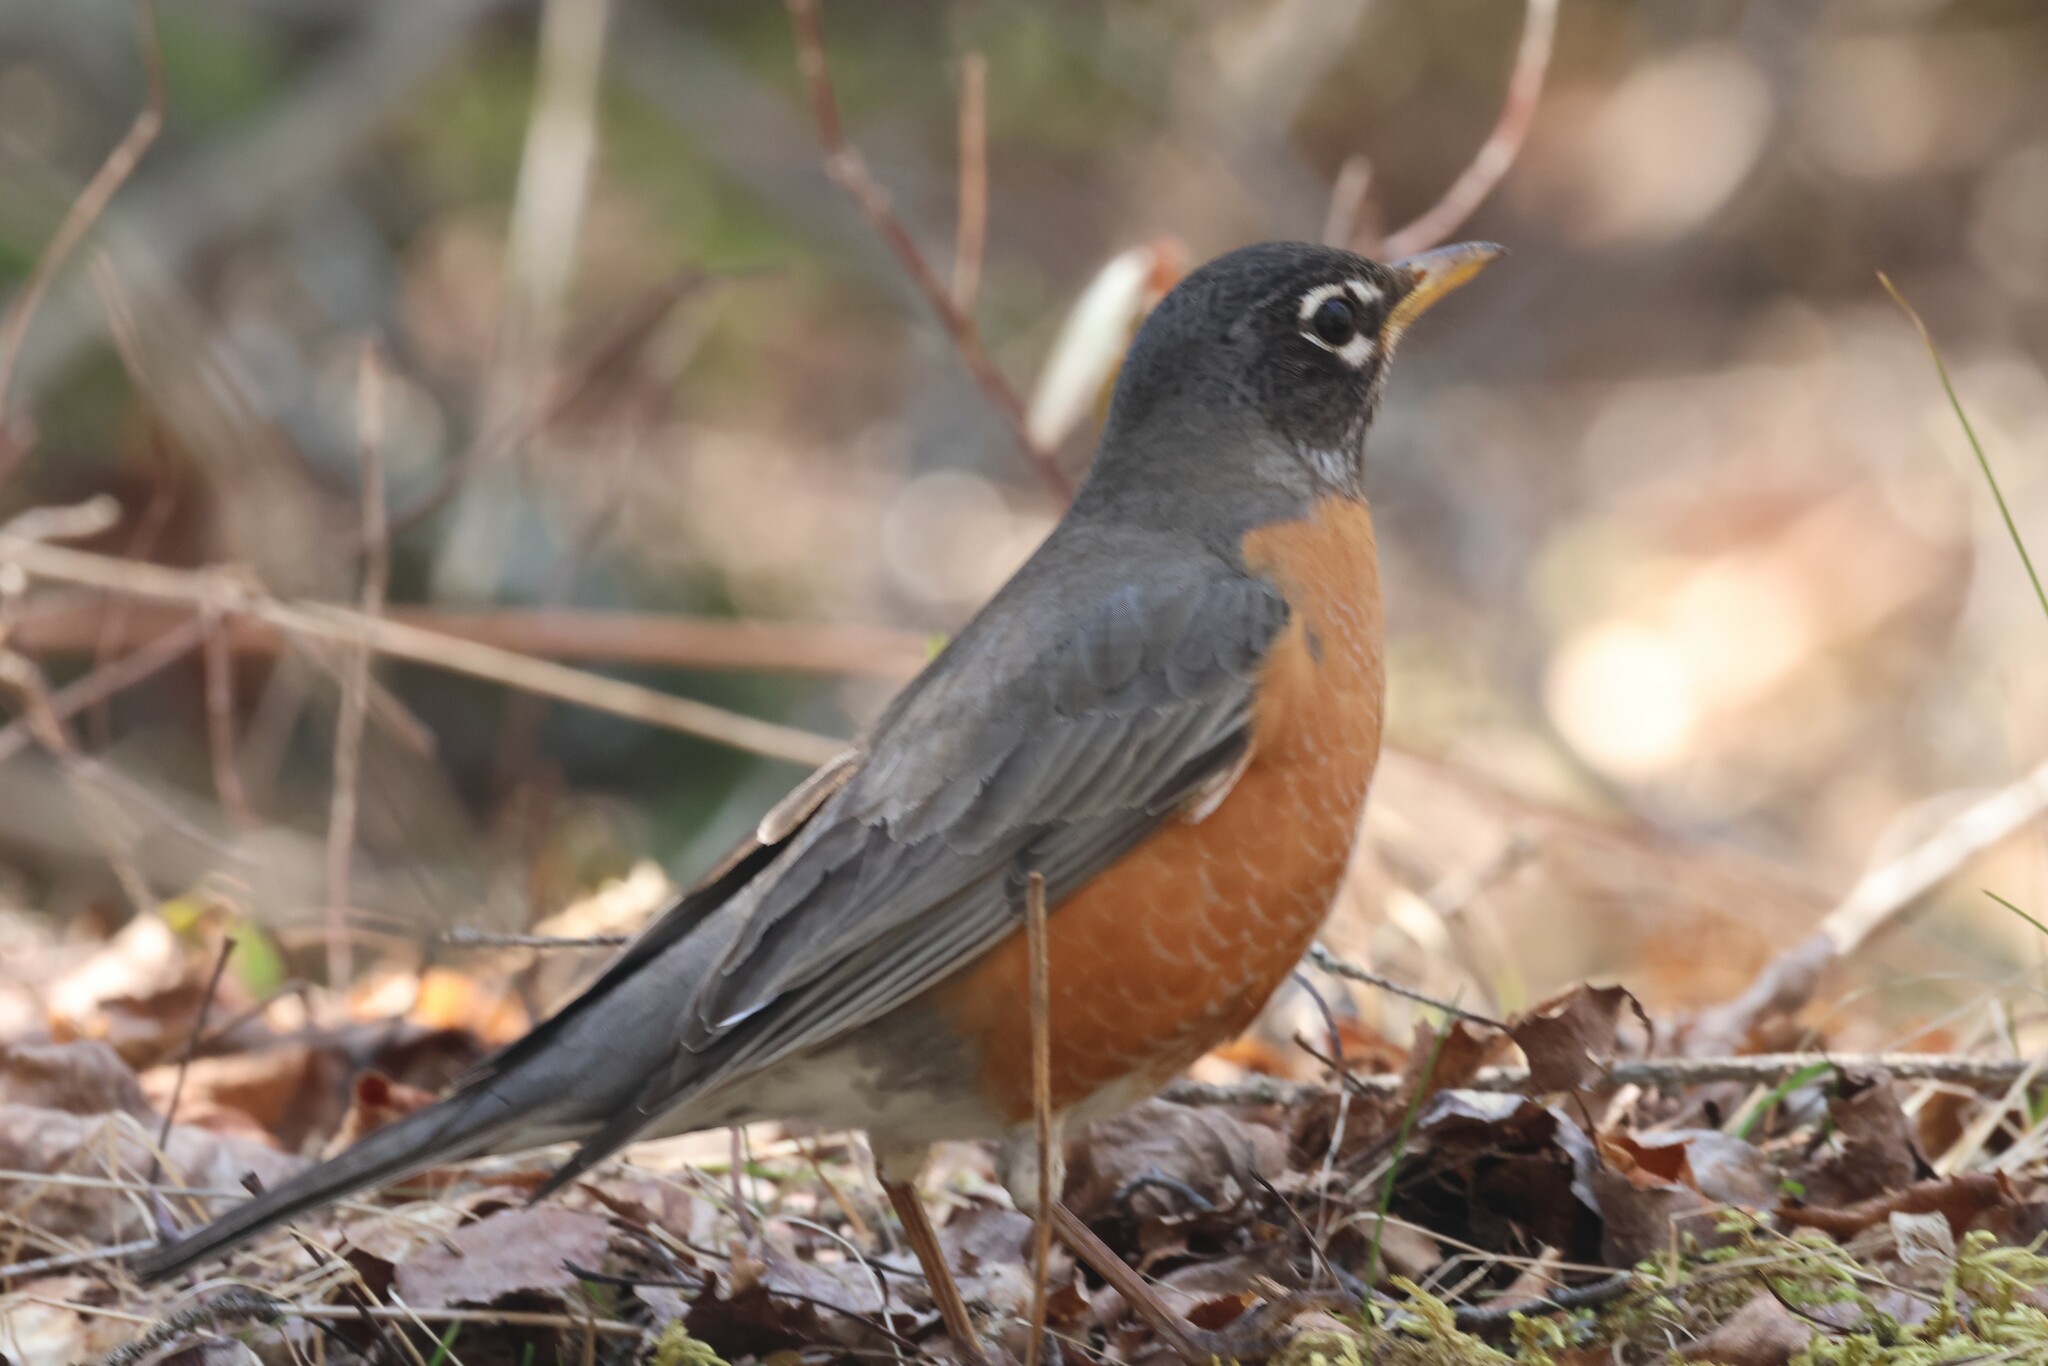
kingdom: Animalia
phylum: Chordata
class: Aves
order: Passeriformes
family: Turdidae
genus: Turdus
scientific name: Turdus migratorius
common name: American robin
